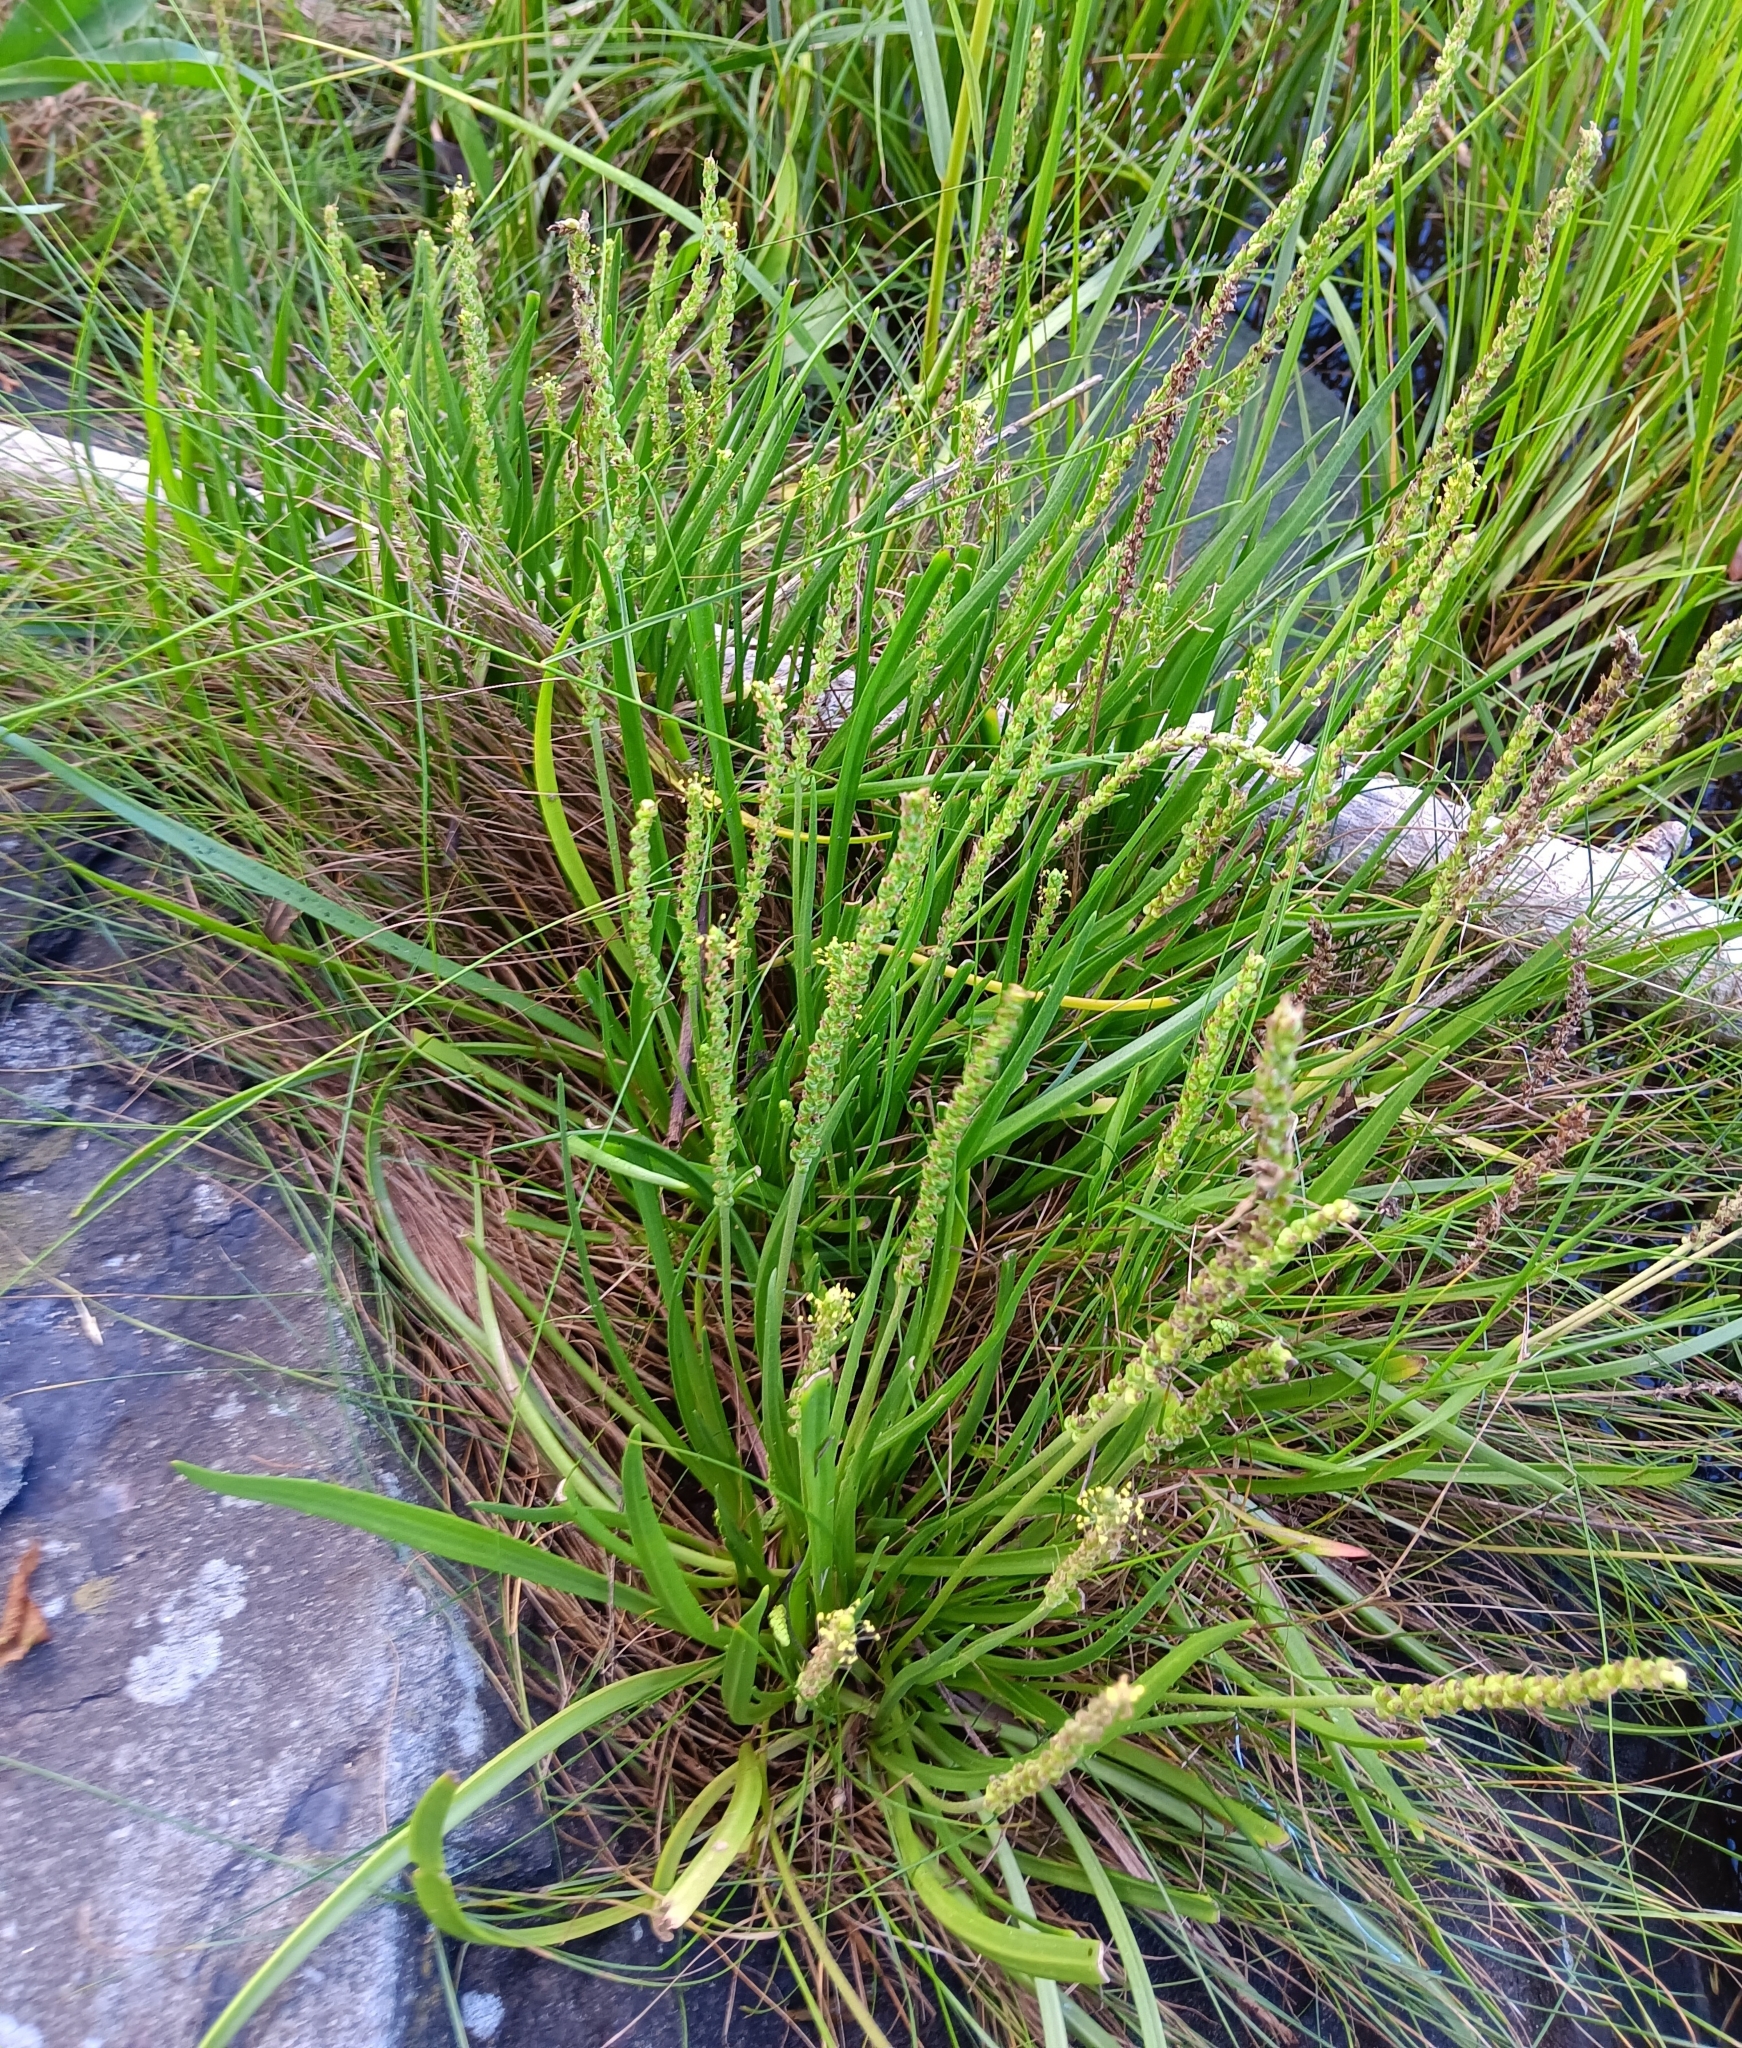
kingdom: Plantae
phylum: Tracheophyta
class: Magnoliopsida
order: Lamiales
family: Plantaginaceae
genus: Plantago
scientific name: Plantago maritima
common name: Sea plantain
